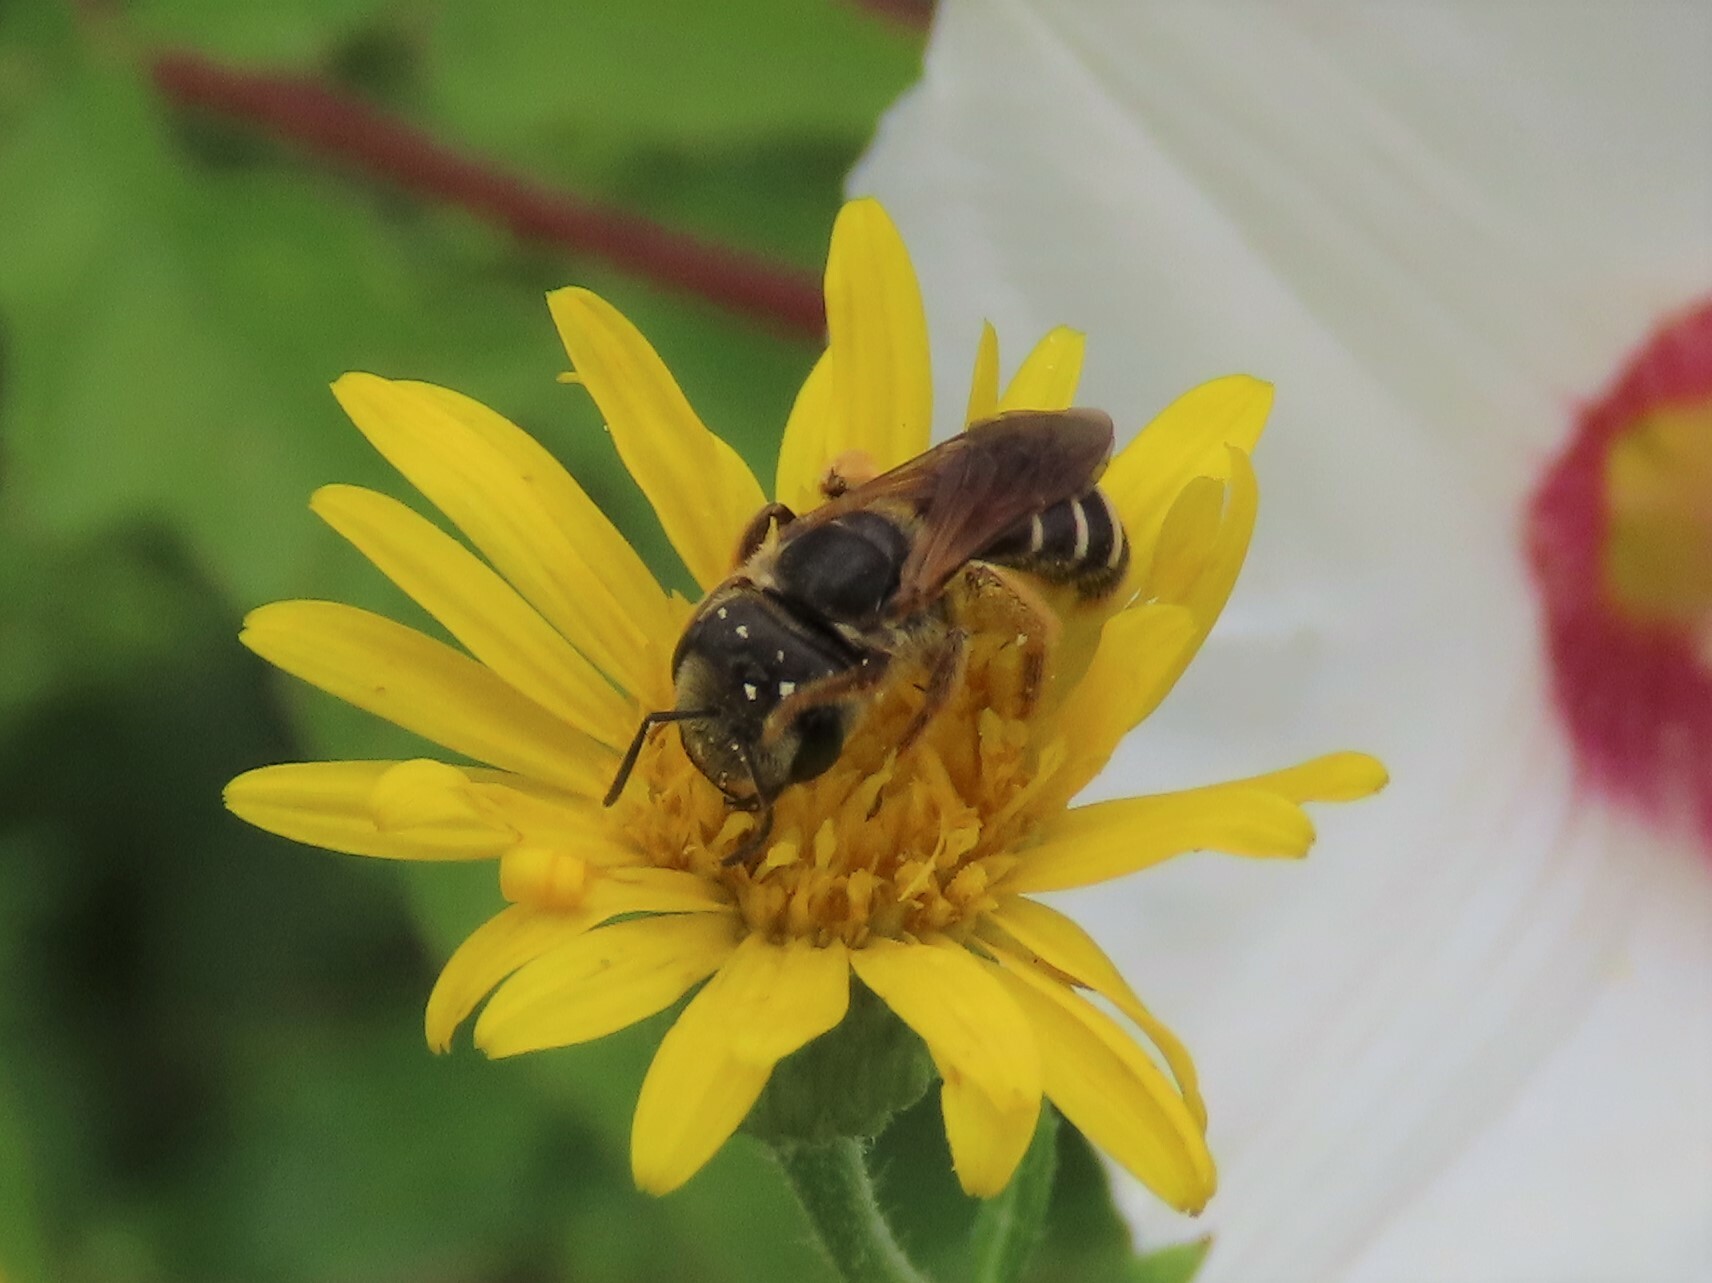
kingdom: Animalia
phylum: Arthropoda
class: Insecta
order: Hymenoptera
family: Halictidae
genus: Halictus
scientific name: Halictus poeyi
